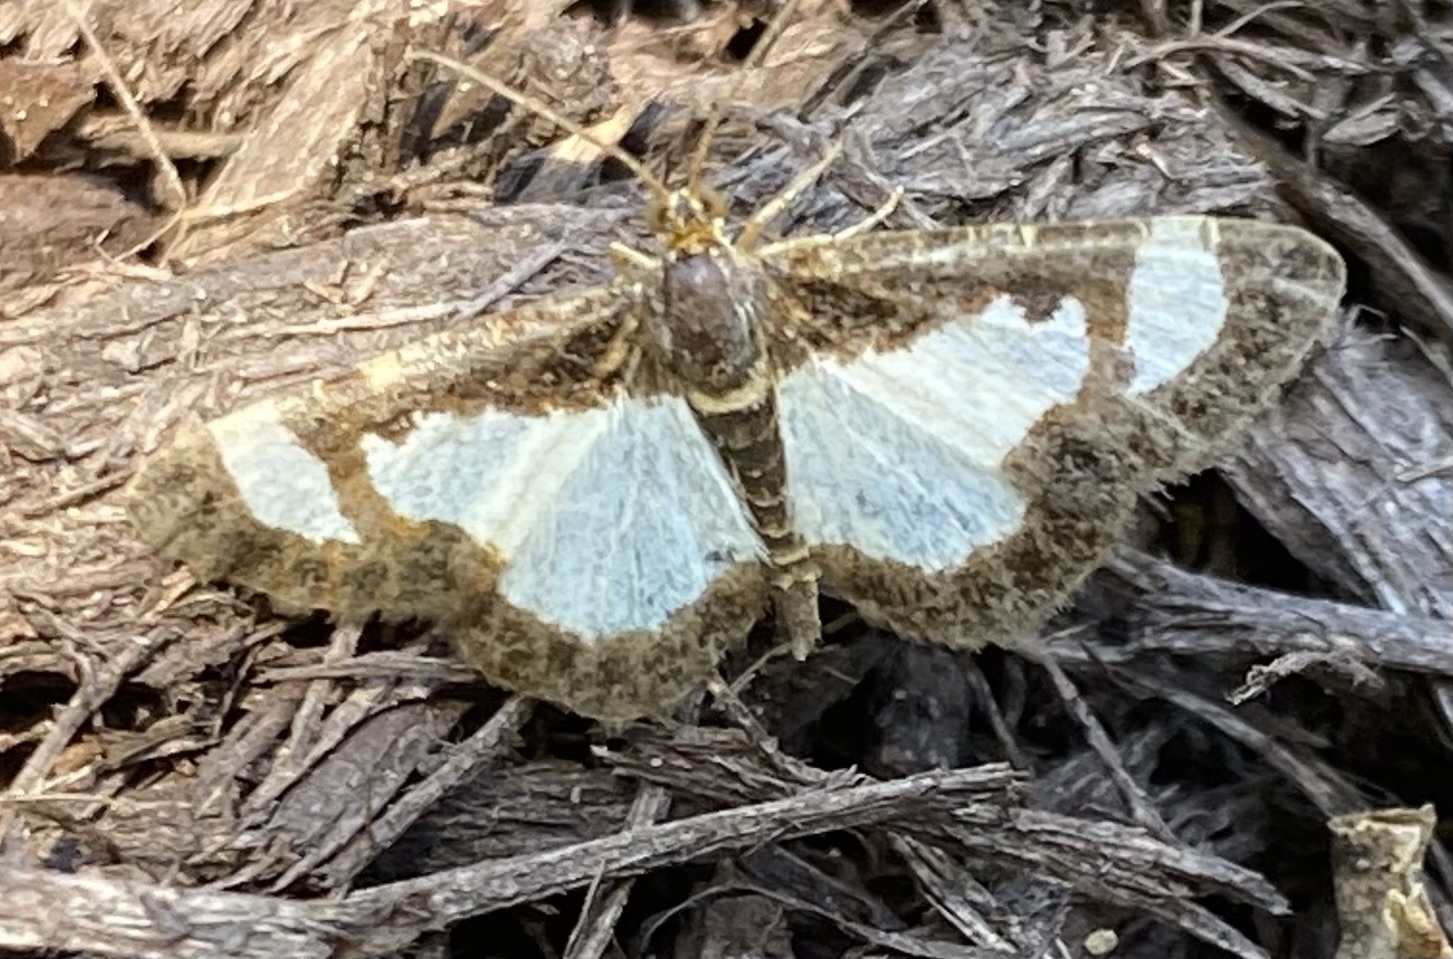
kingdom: Animalia
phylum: Arthropoda
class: Insecta
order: Lepidoptera
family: Geometridae
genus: Heliomata
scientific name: Heliomata cycladata
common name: Common spring moth
